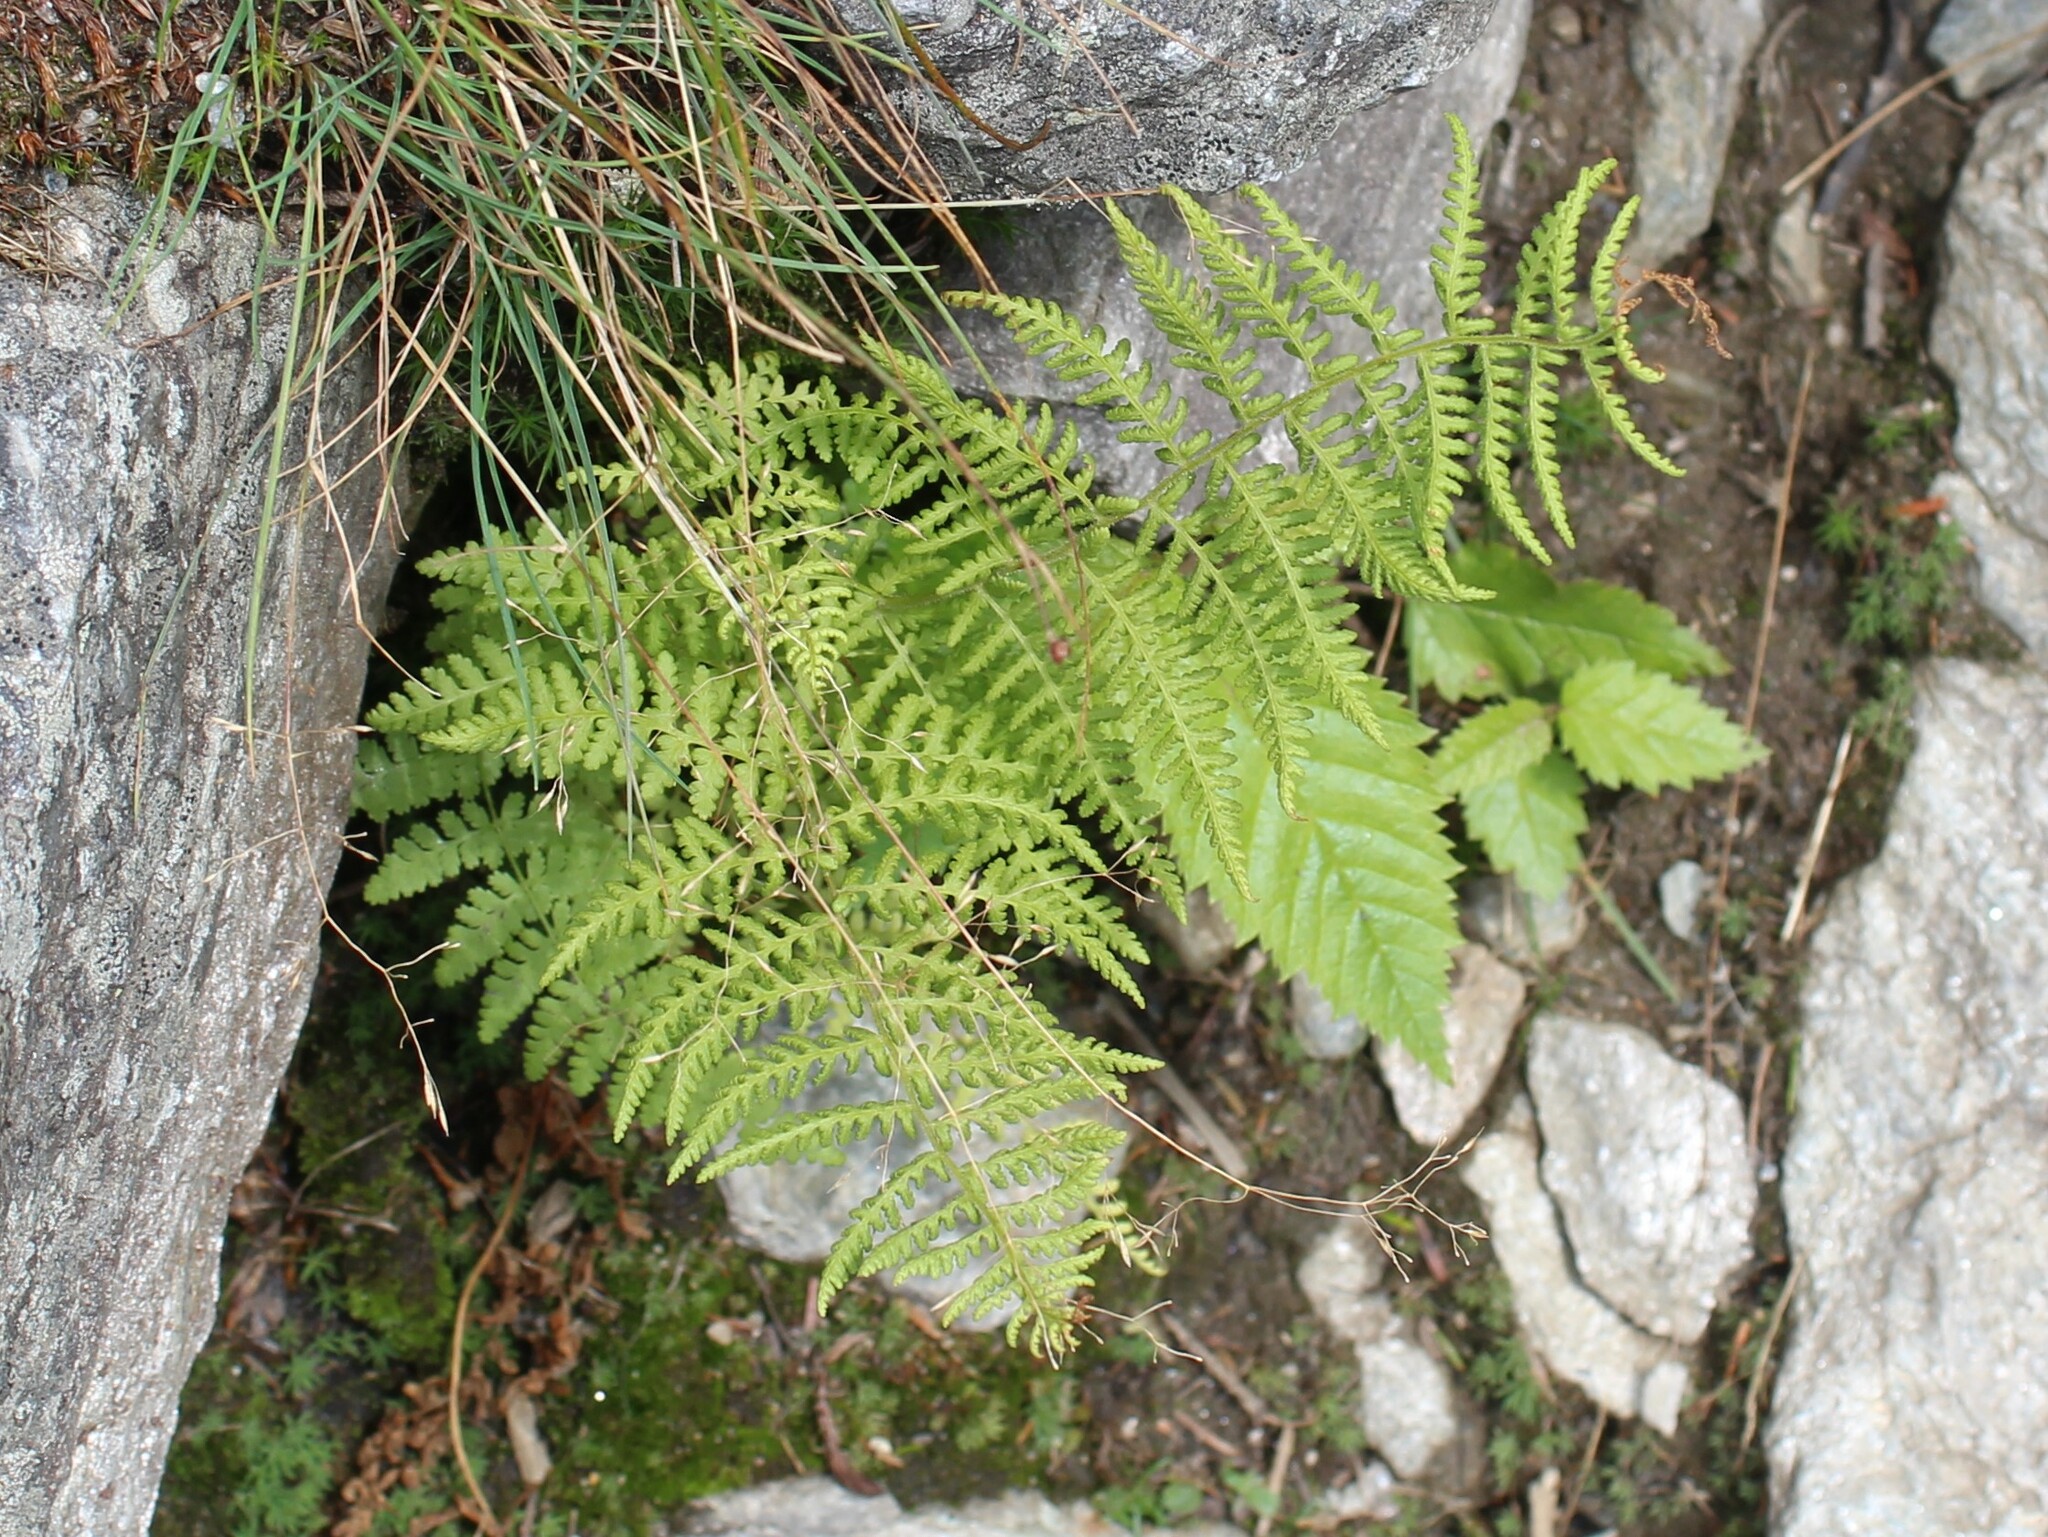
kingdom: Plantae
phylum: Tracheophyta
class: Polypodiopsida
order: Polypodiales
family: Dennstaedtiaceae
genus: Sitobolium
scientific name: Sitobolium punctilobum
